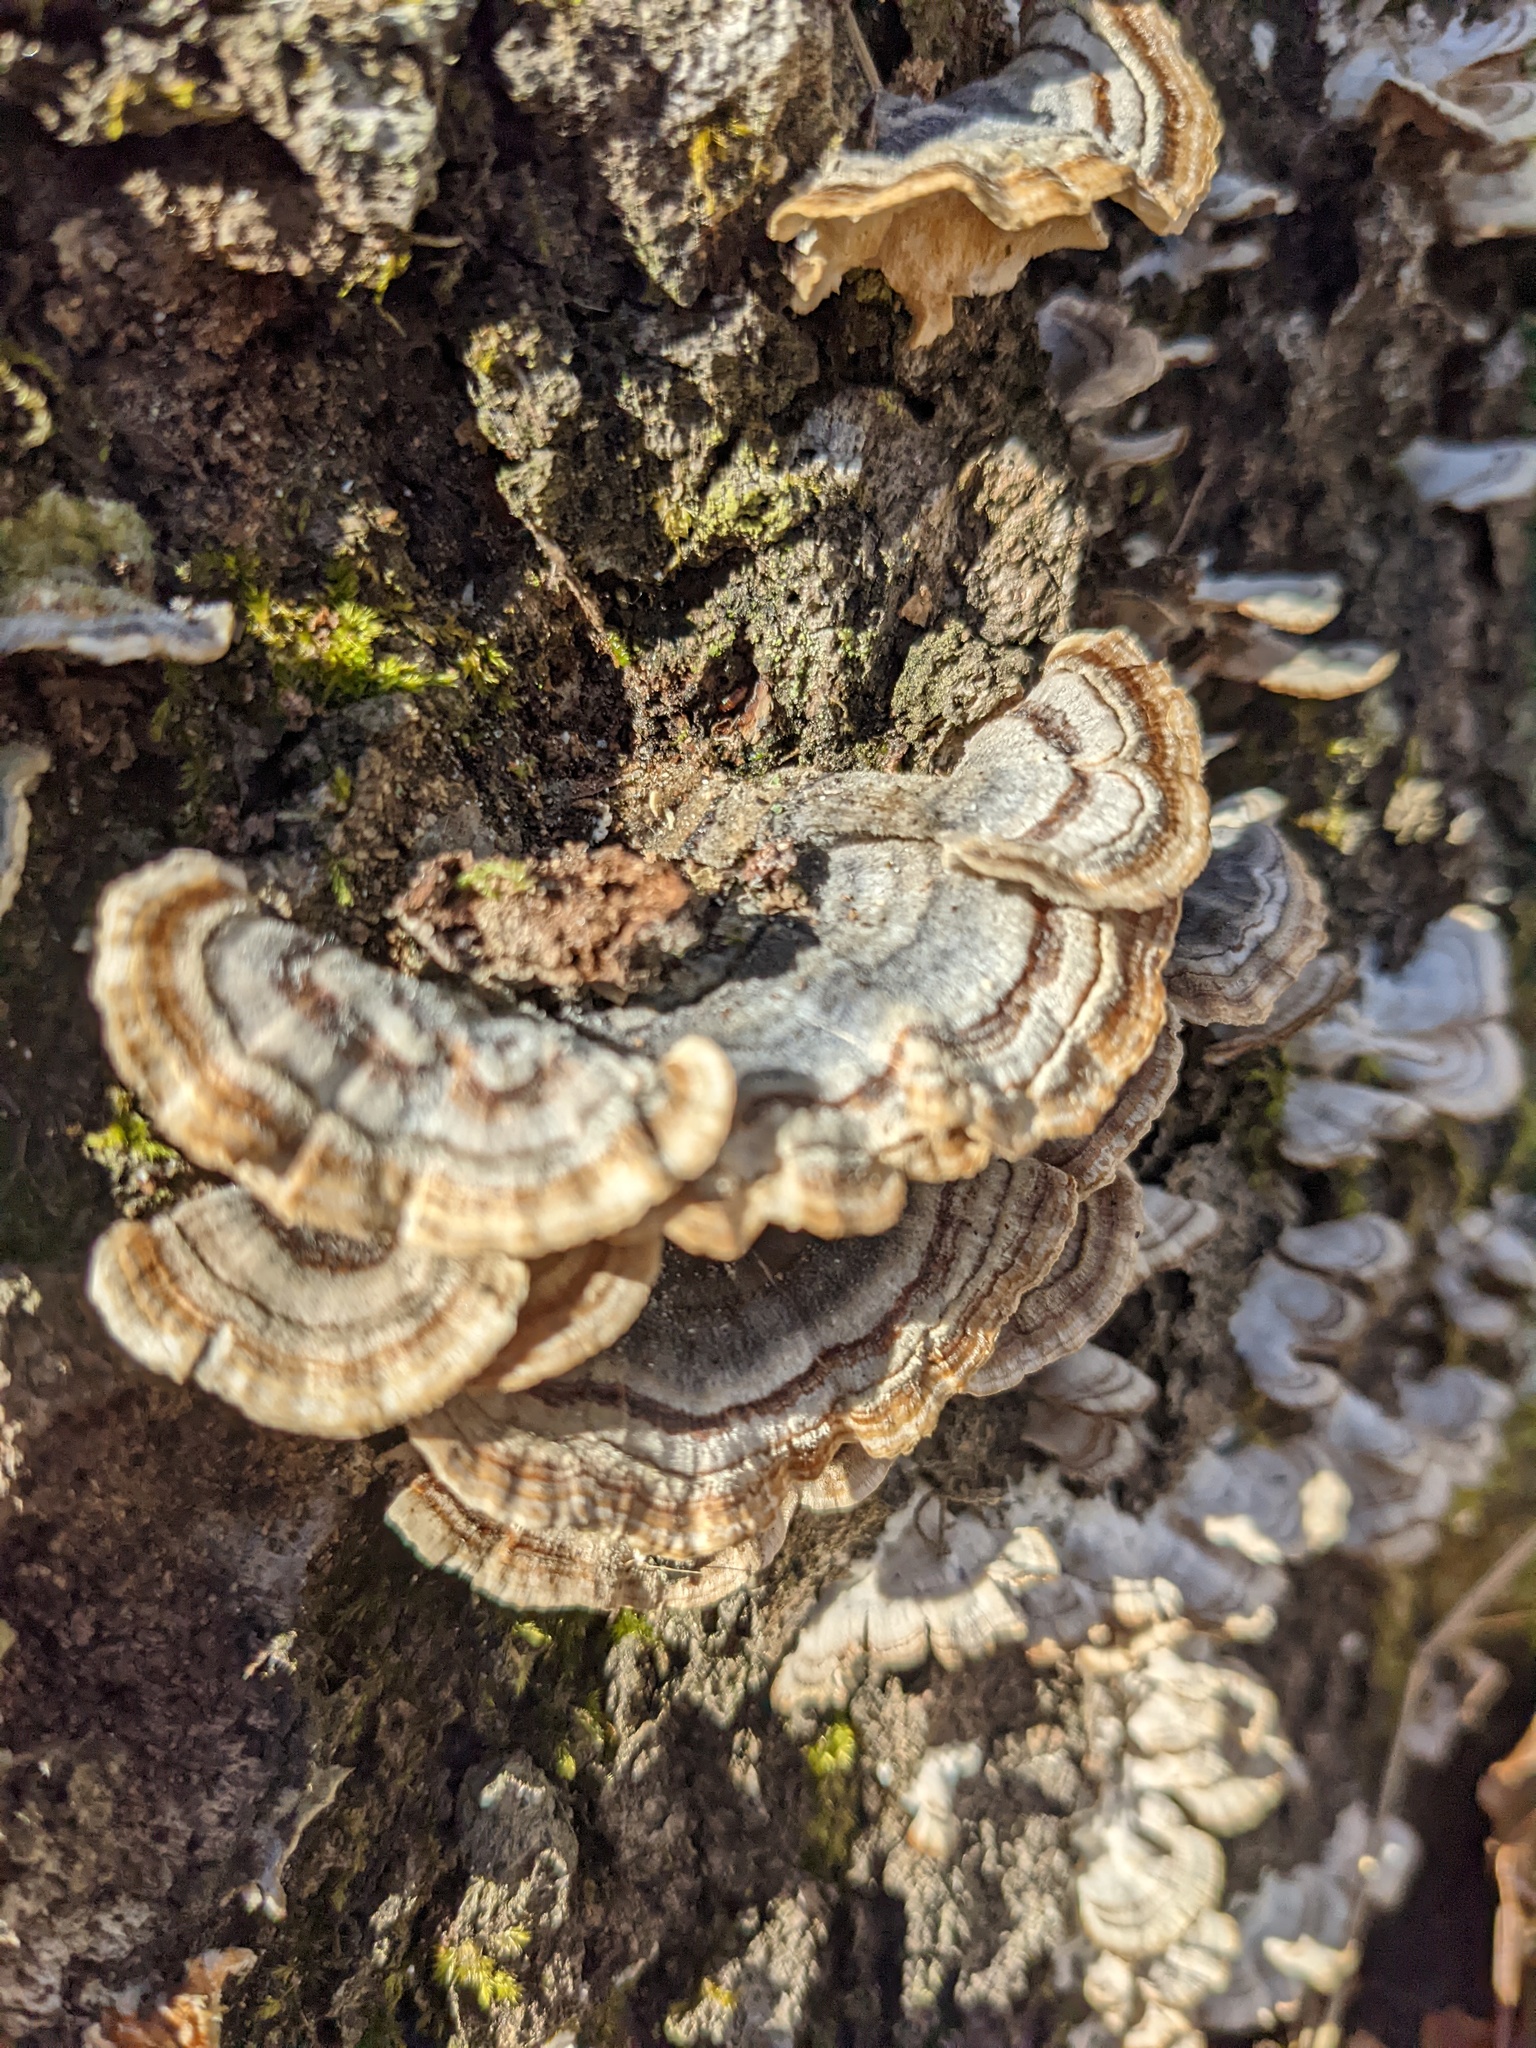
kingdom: Fungi
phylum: Basidiomycota
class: Agaricomycetes
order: Polyporales
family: Polyporaceae
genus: Trametes
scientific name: Trametes versicolor
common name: Turkeytail
